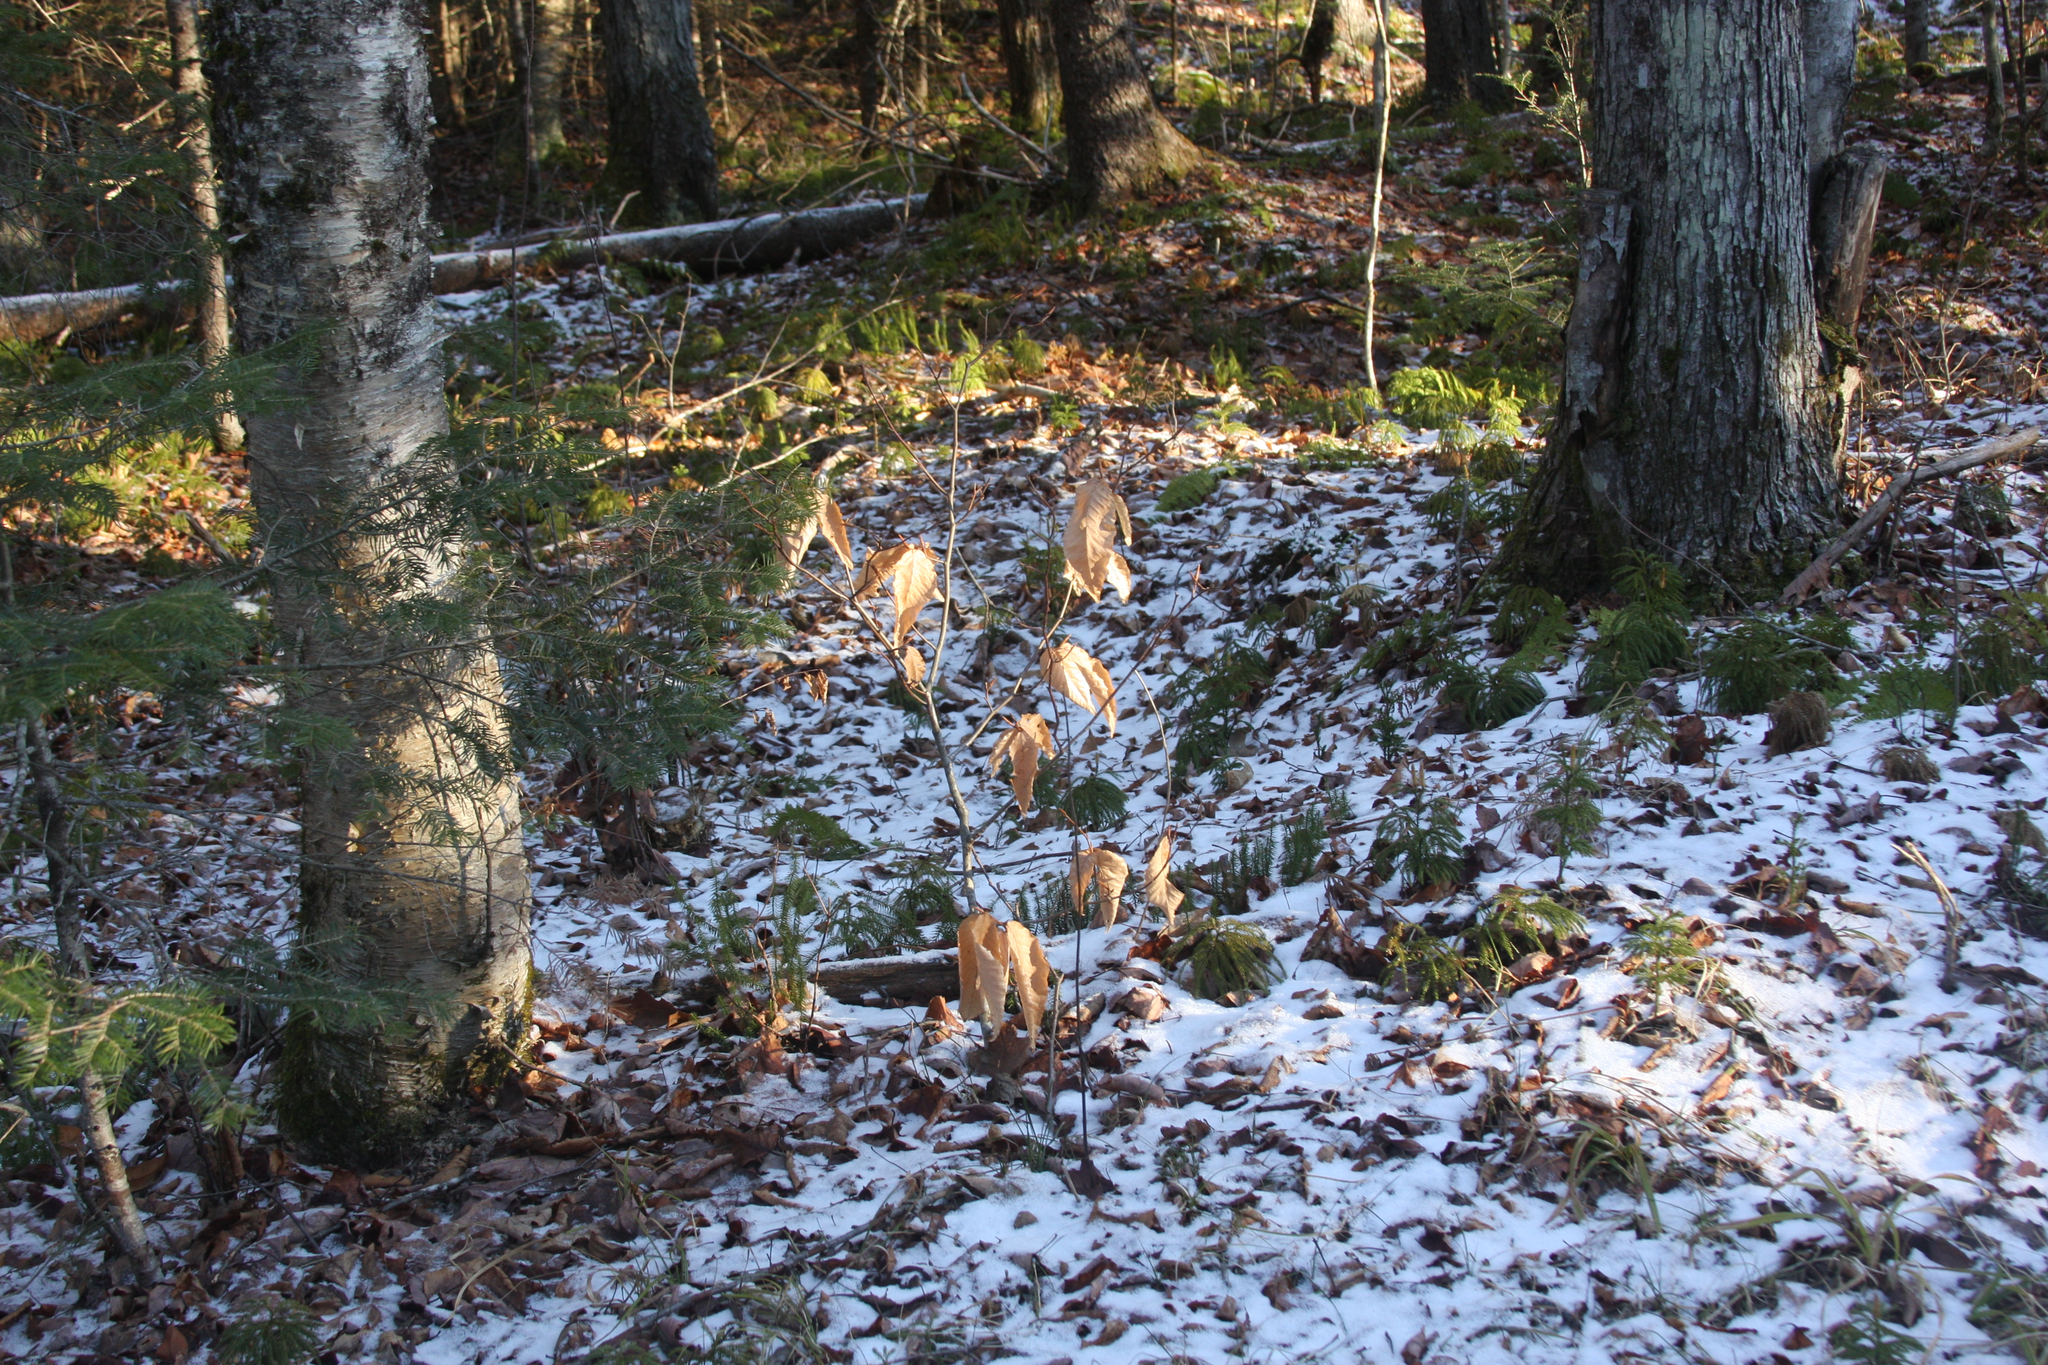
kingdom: Plantae
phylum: Tracheophyta
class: Magnoliopsida
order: Fagales
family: Fagaceae
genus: Fagus
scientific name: Fagus grandifolia
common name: American beech
